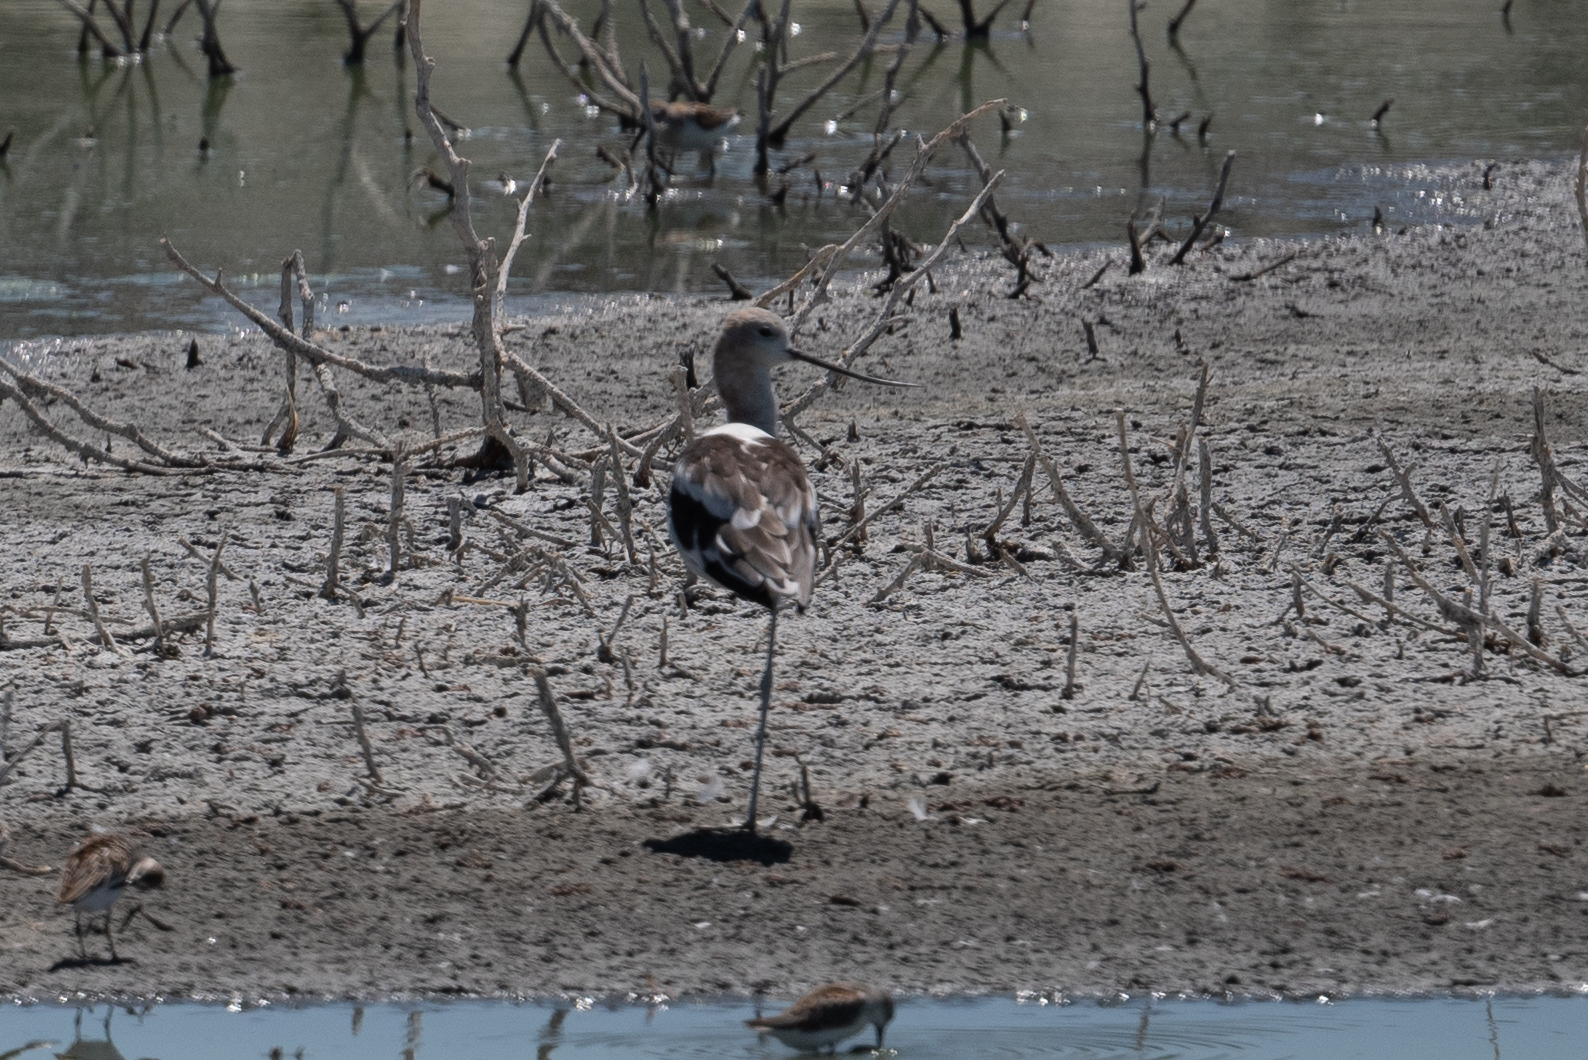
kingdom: Animalia
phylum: Chordata
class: Aves
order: Charadriiformes
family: Recurvirostridae
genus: Recurvirostra
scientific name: Recurvirostra americana
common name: American avocet
